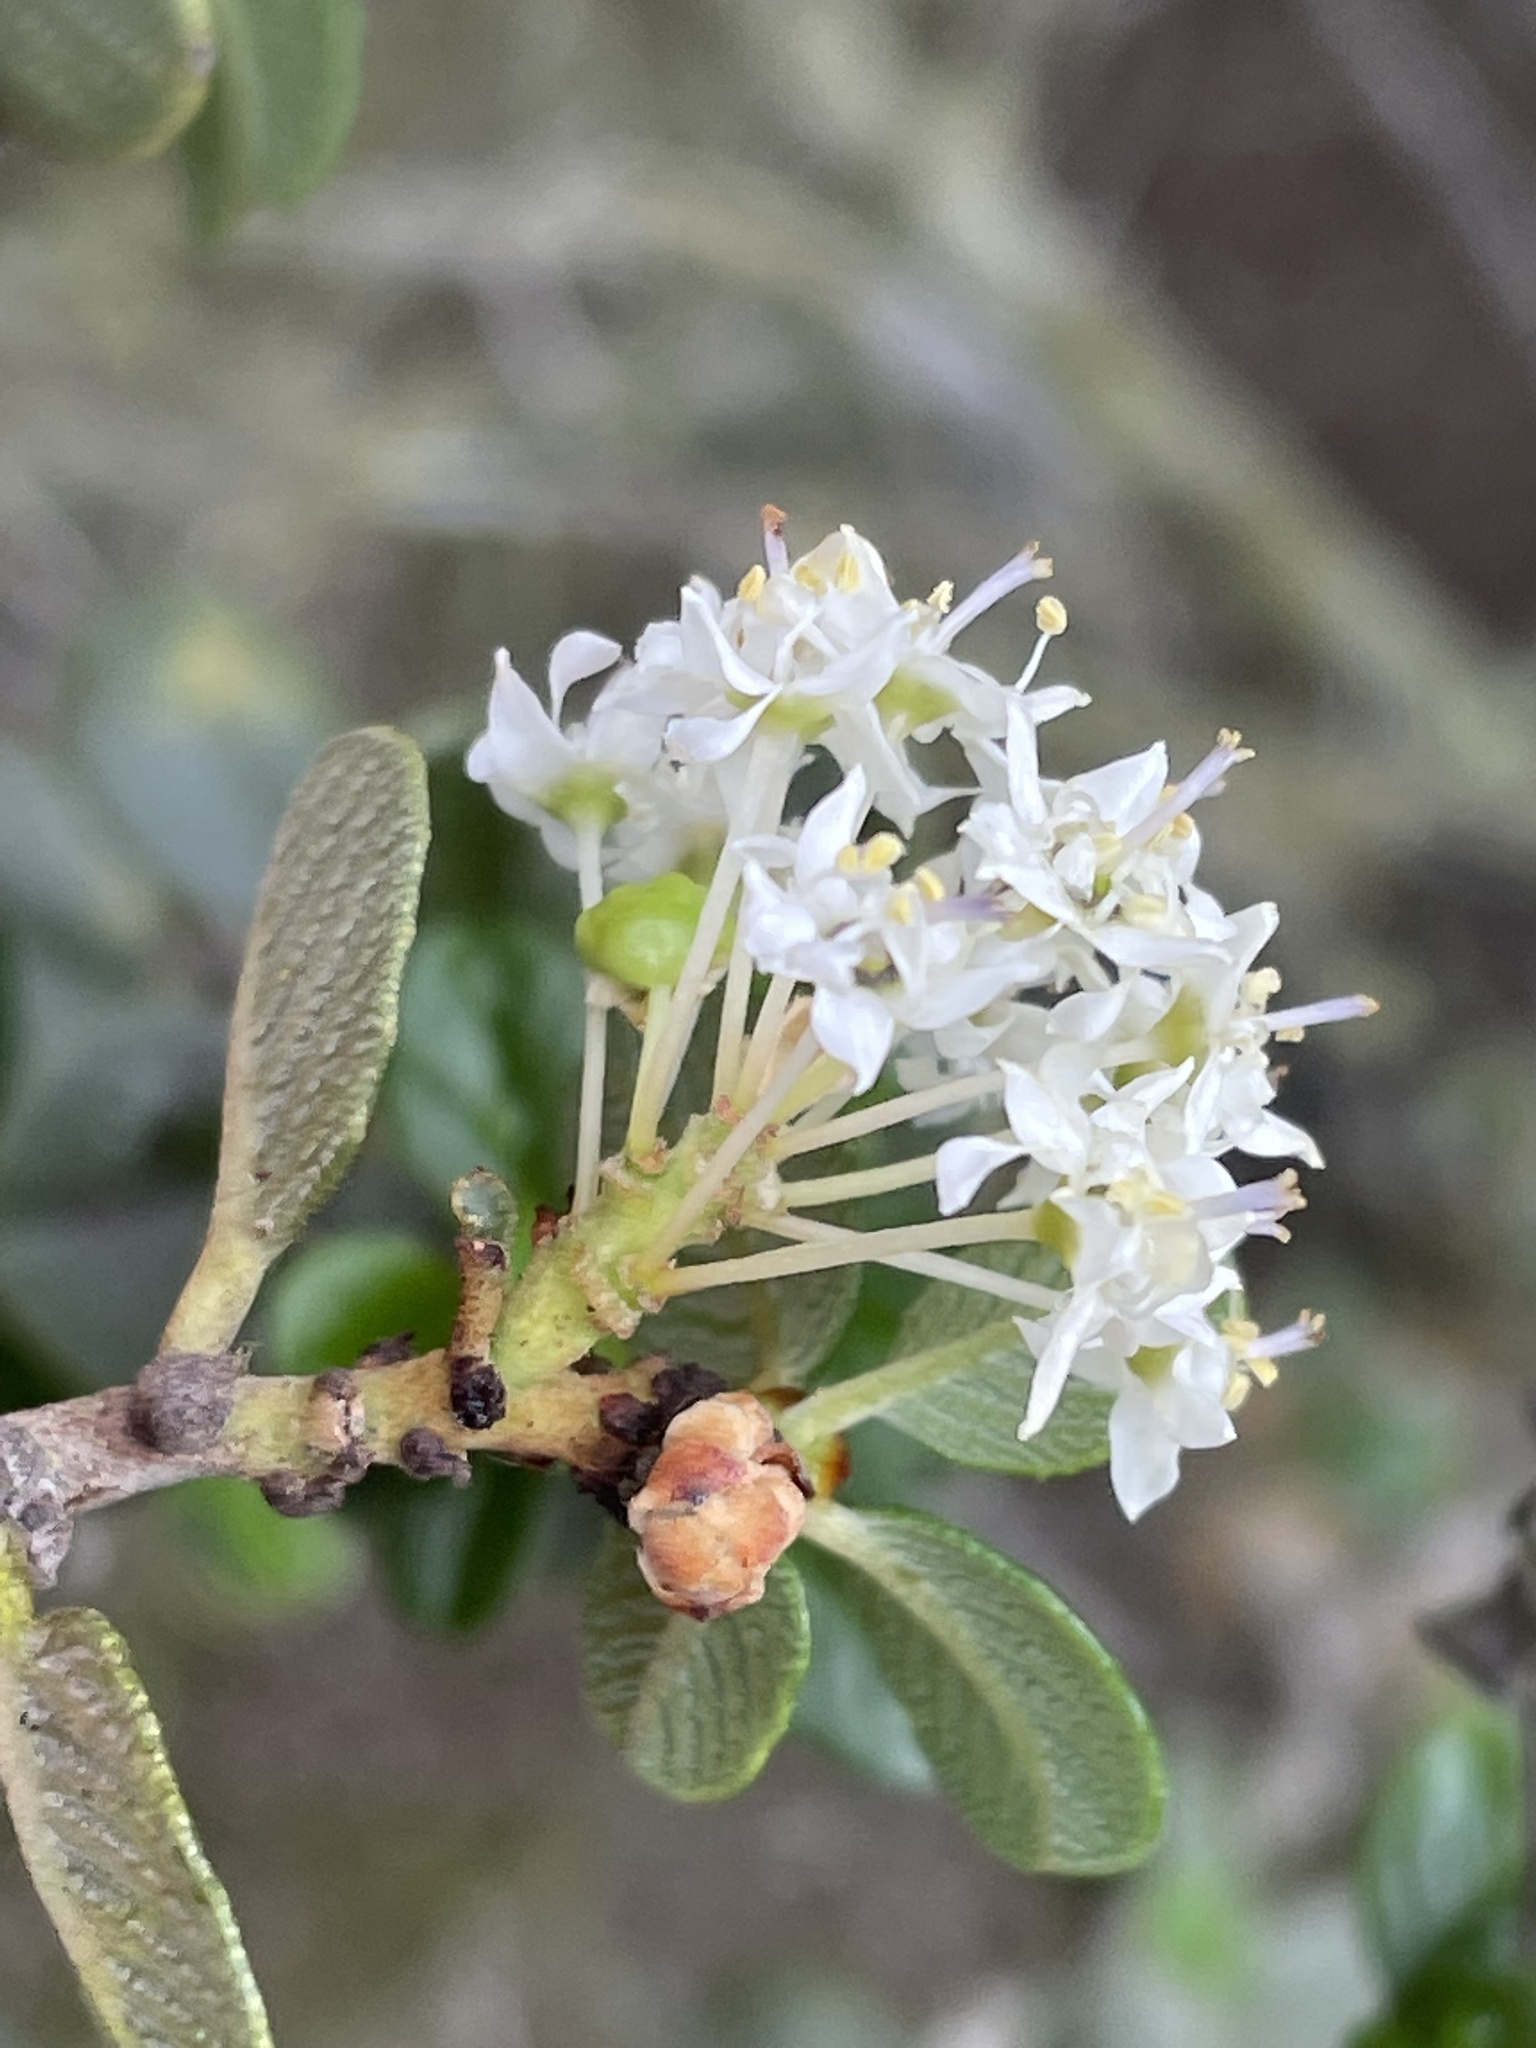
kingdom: Plantae
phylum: Tracheophyta
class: Magnoliopsida
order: Rosales
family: Rhamnaceae
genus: Ceanothus
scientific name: Ceanothus verrucosus
